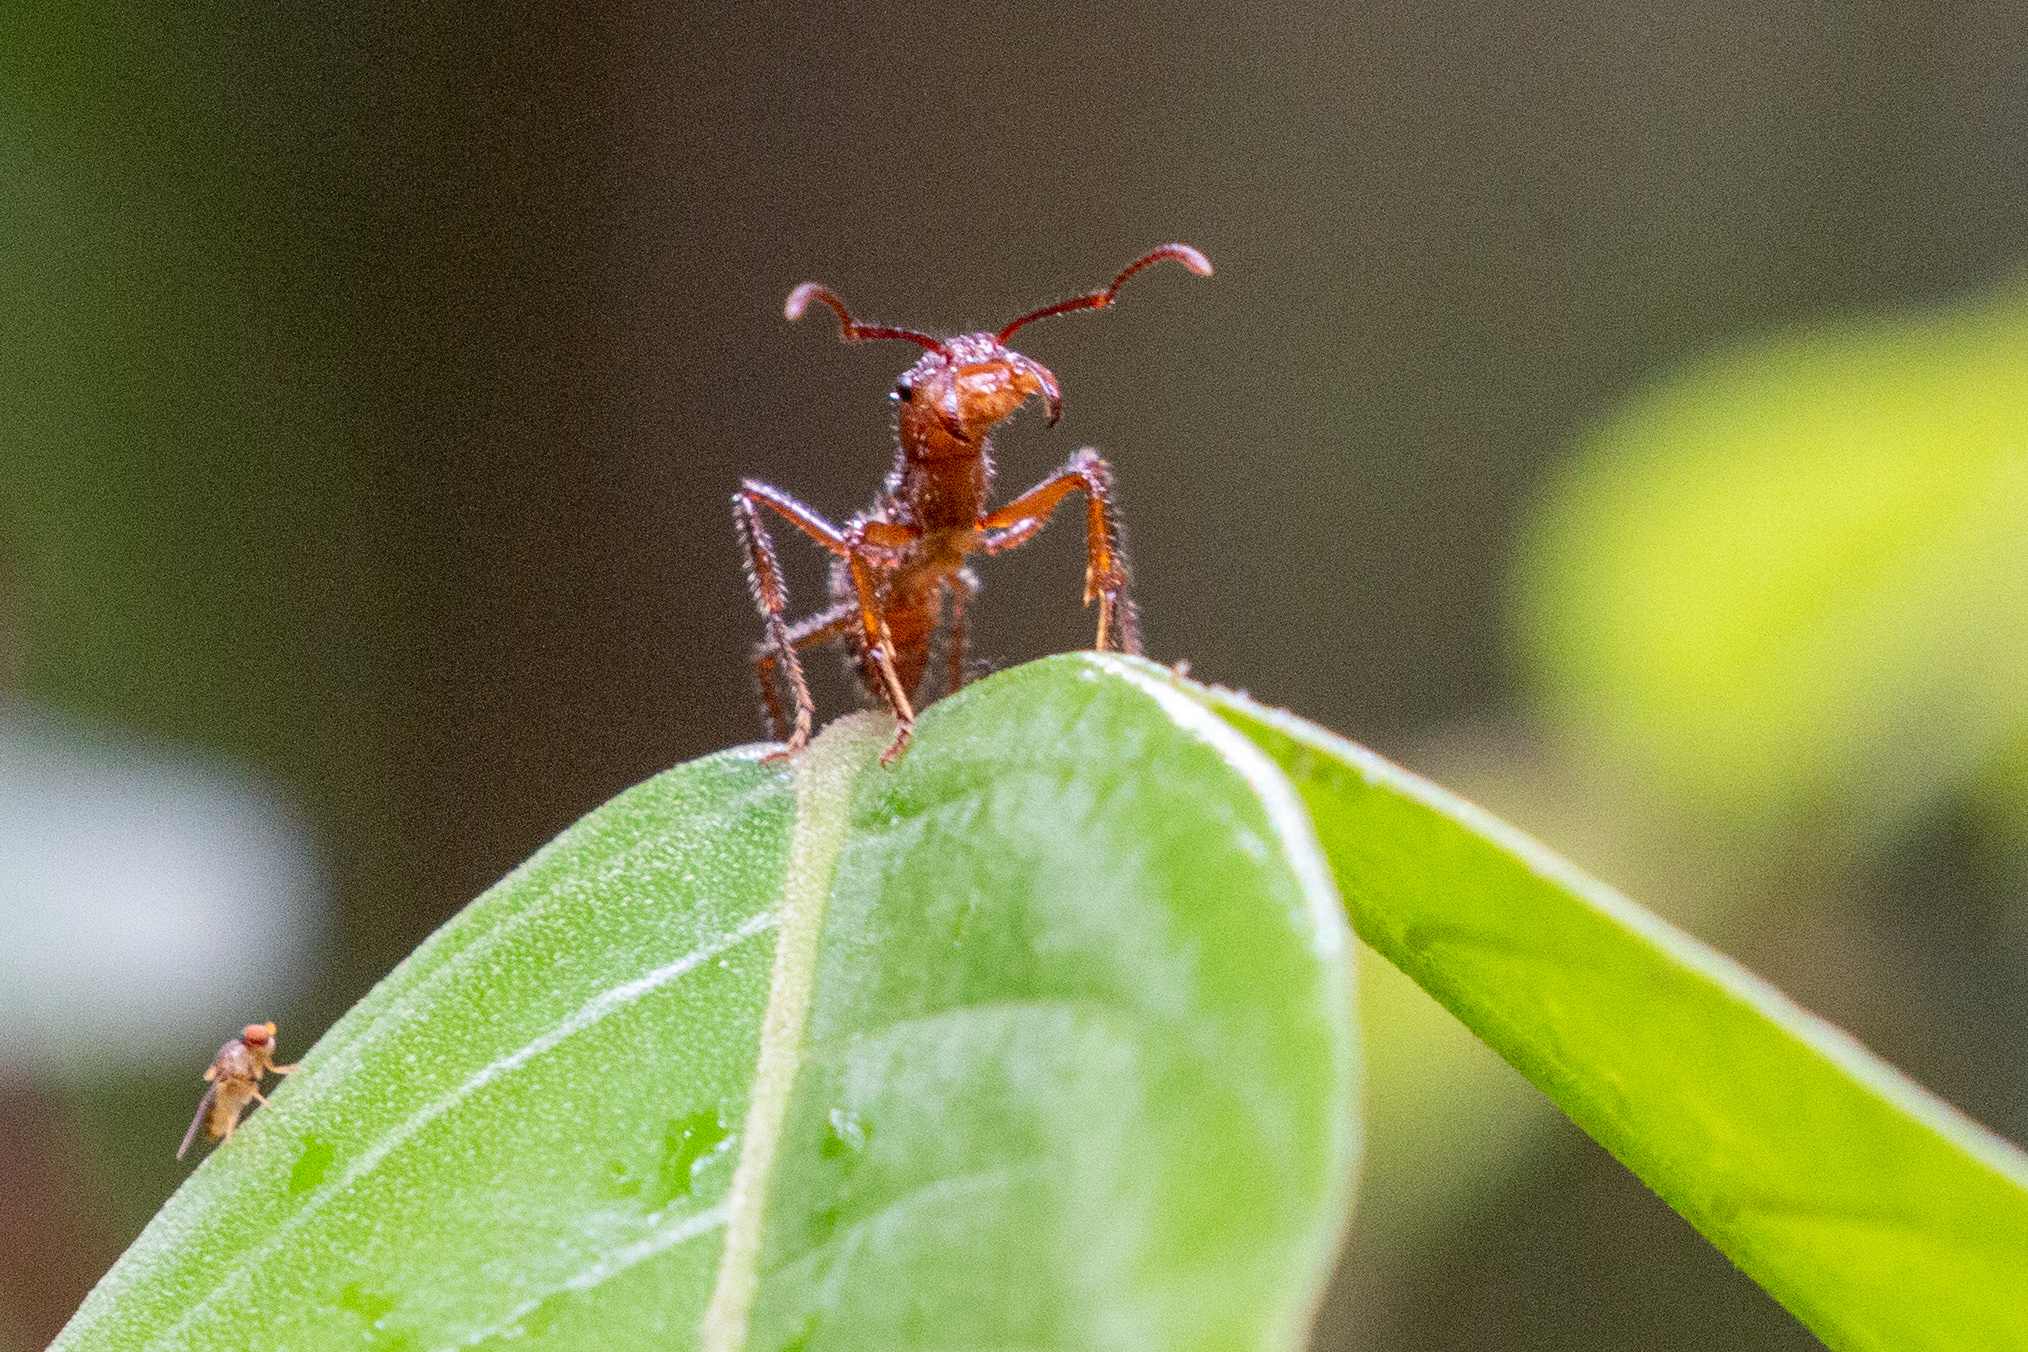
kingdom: Animalia
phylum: Arthropoda
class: Insecta
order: Hymenoptera
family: Formicidae
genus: Ectatomma
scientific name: Ectatomma tuberculatum
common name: Ant
